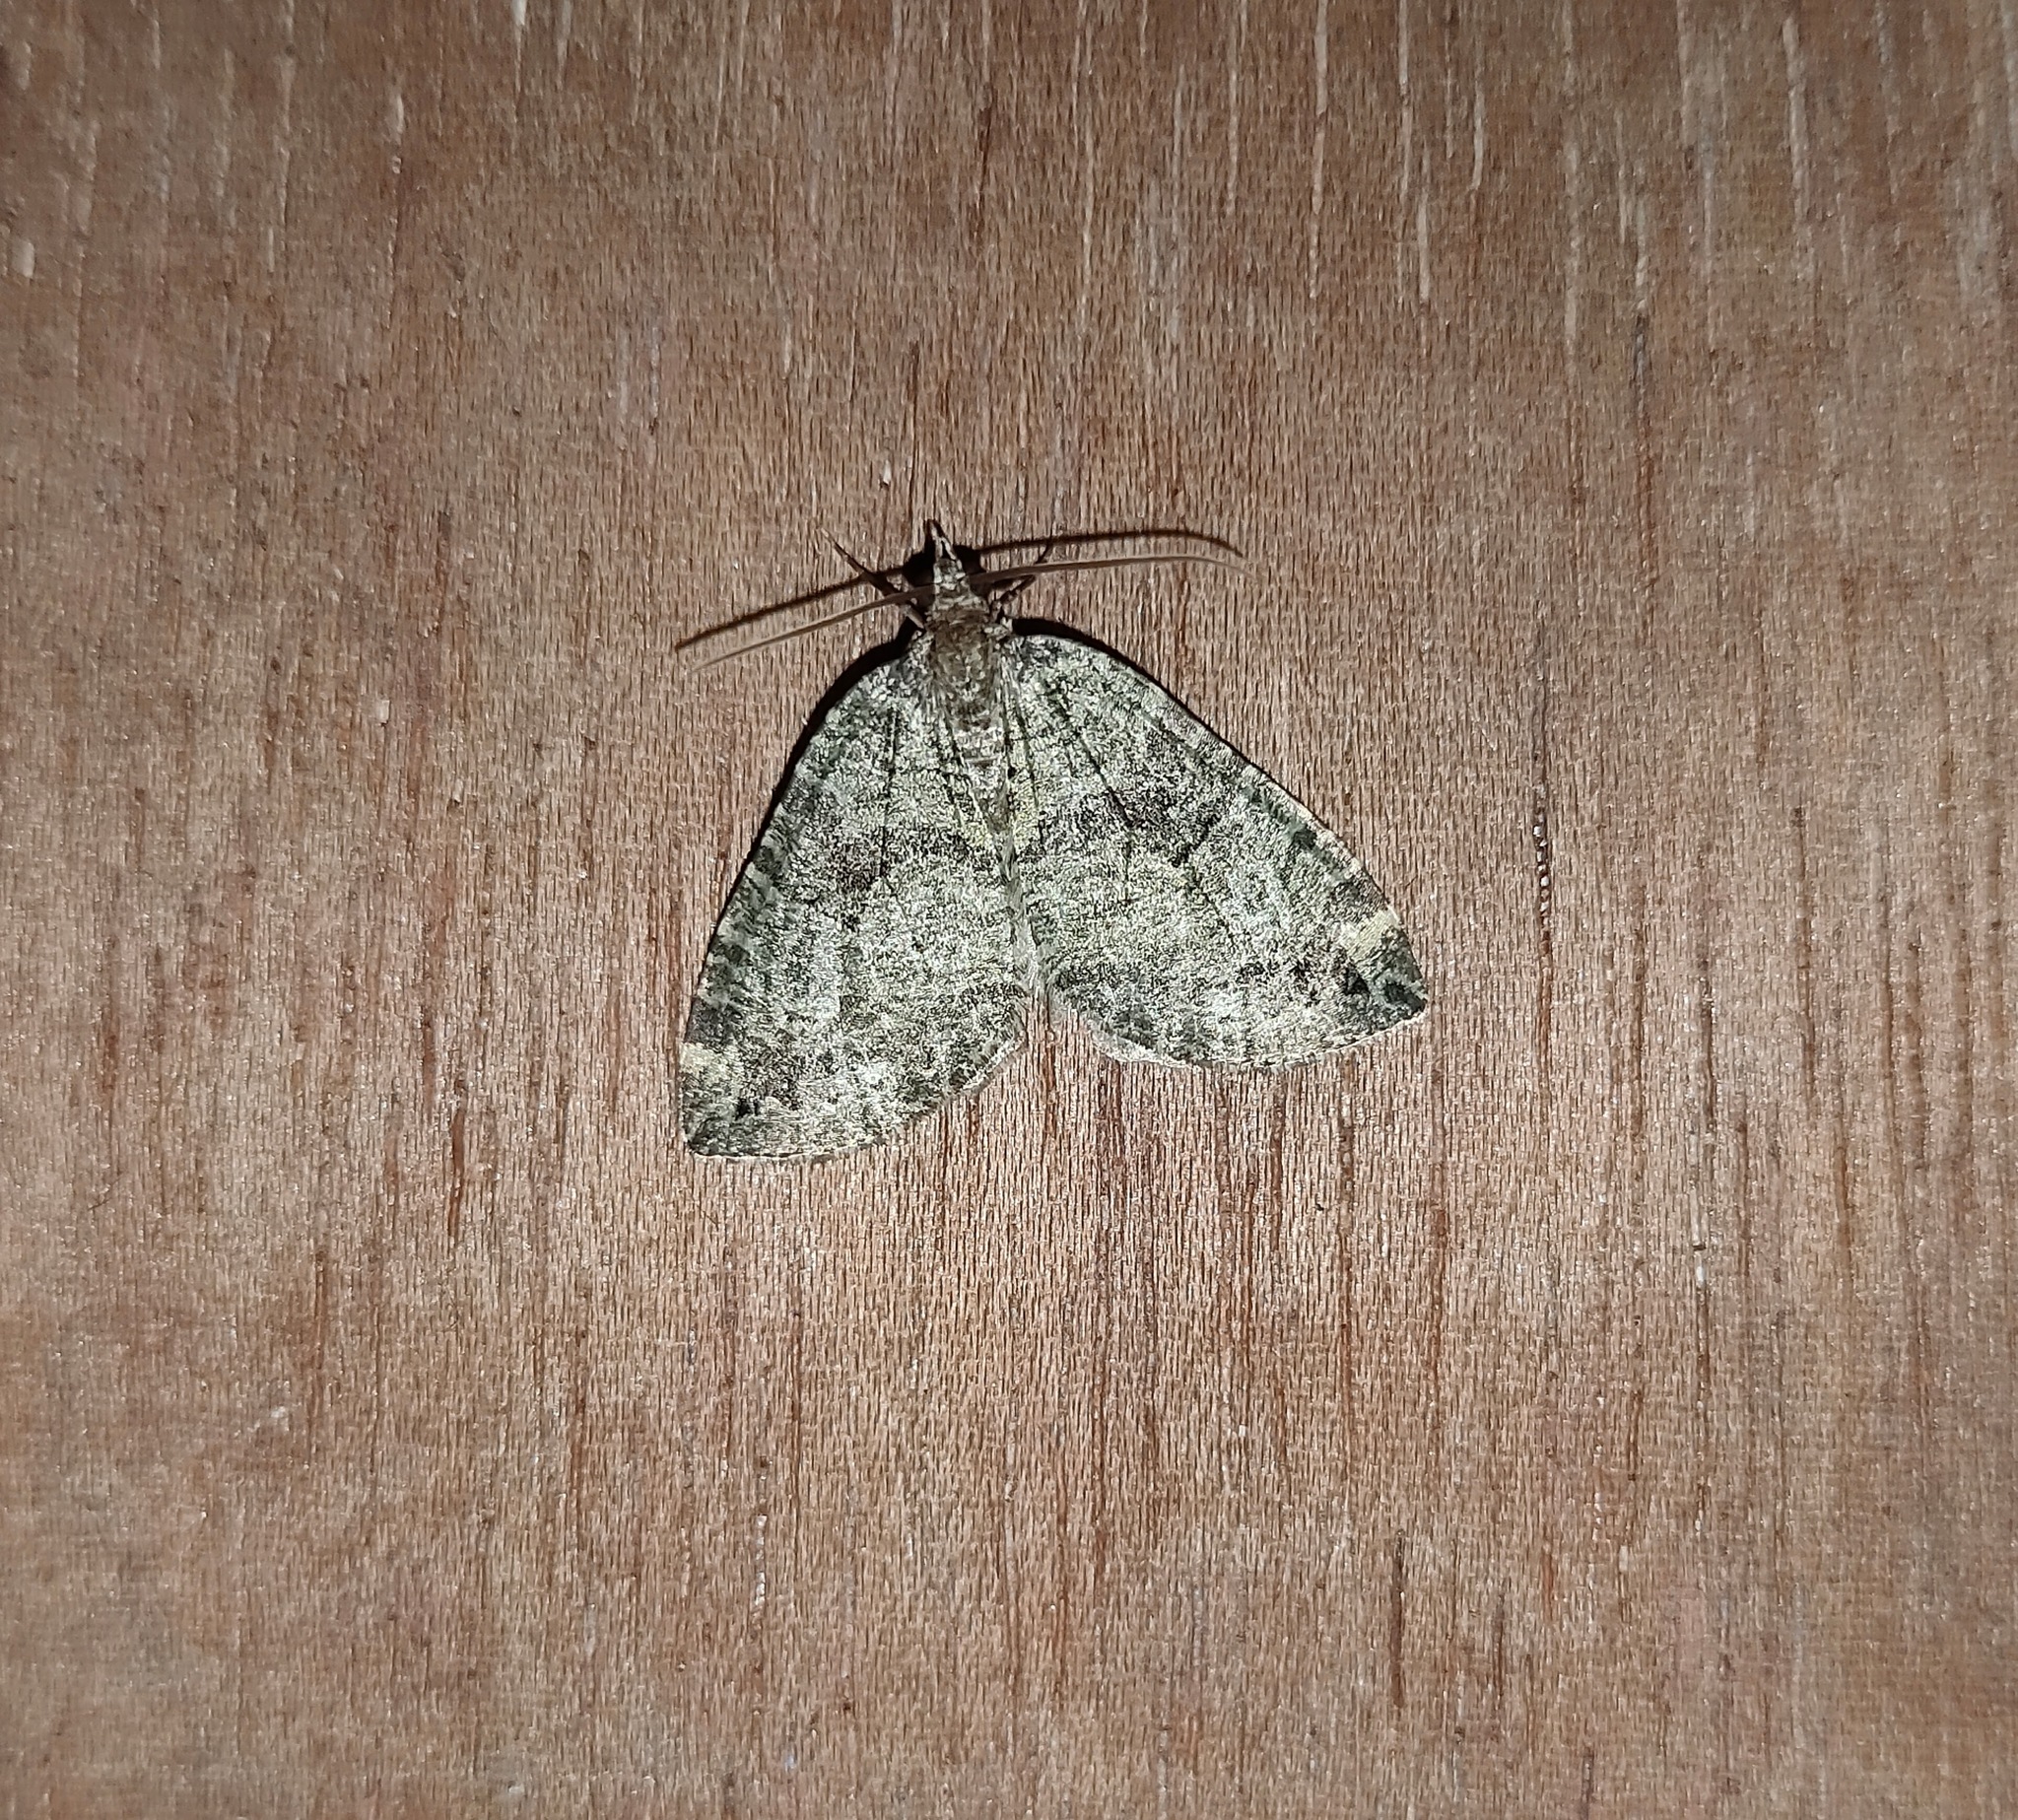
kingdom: Animalia
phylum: Arthropoda
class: Insecta
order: Lepidoptera
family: Geometridae
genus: Hydriomena
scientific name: Hydriomena furcata
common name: July highflyer
